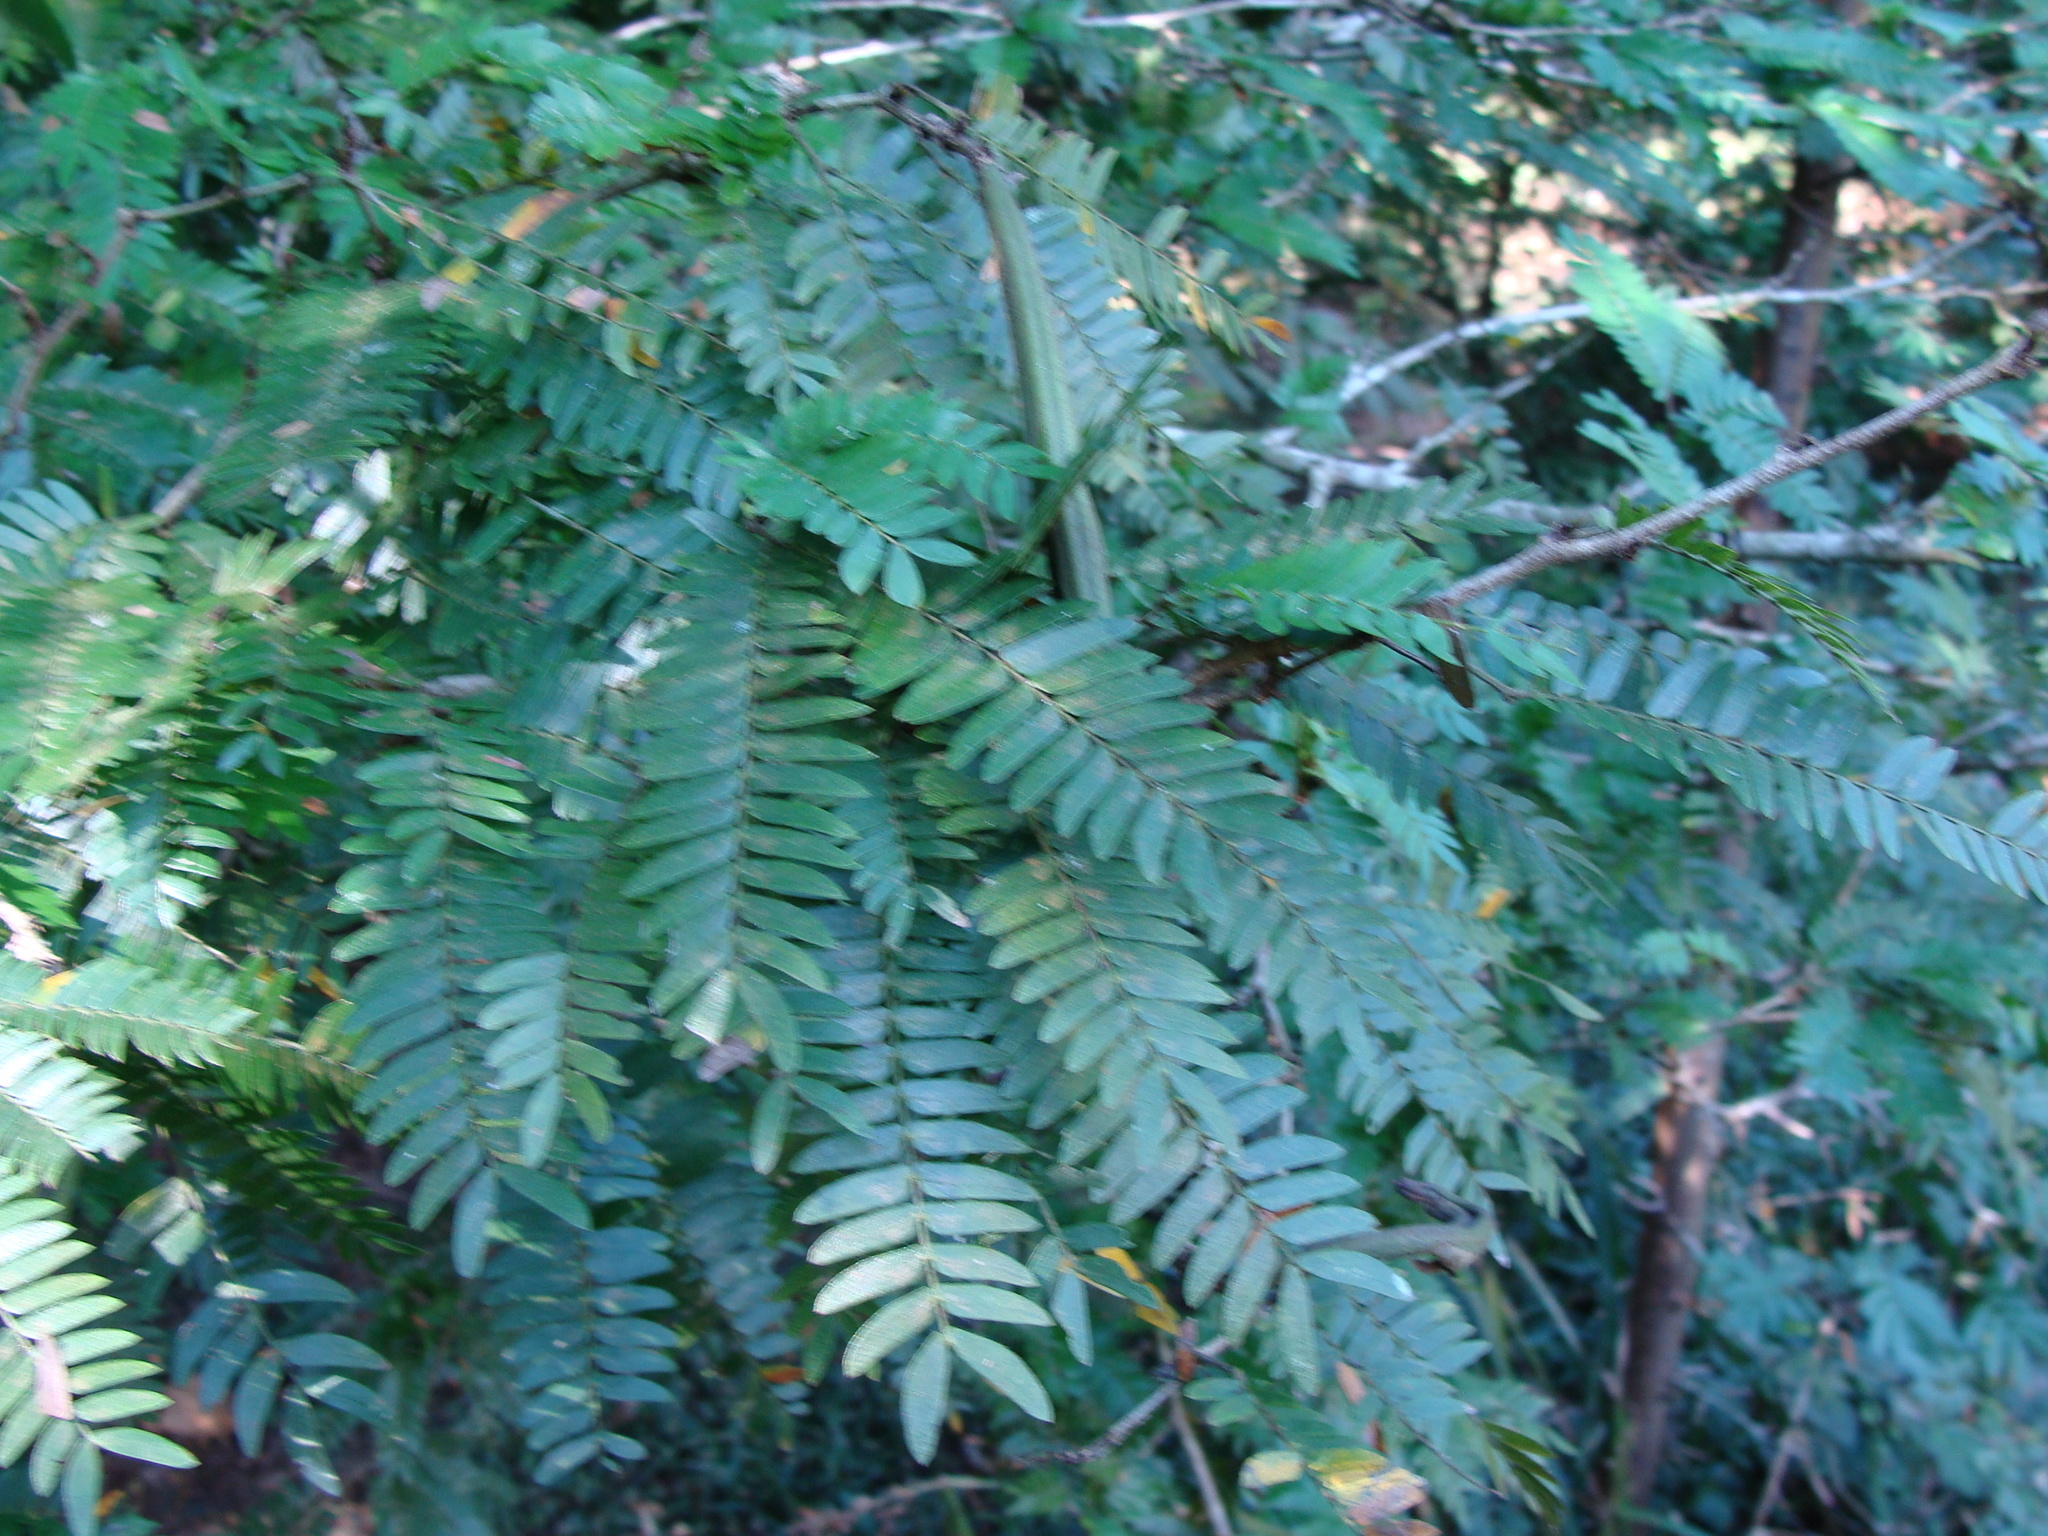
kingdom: Plantae
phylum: Tracheophyta
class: Magnoliopsida
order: Fabales
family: Fabaceae
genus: Calliandra
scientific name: Calliandra magdalenae
